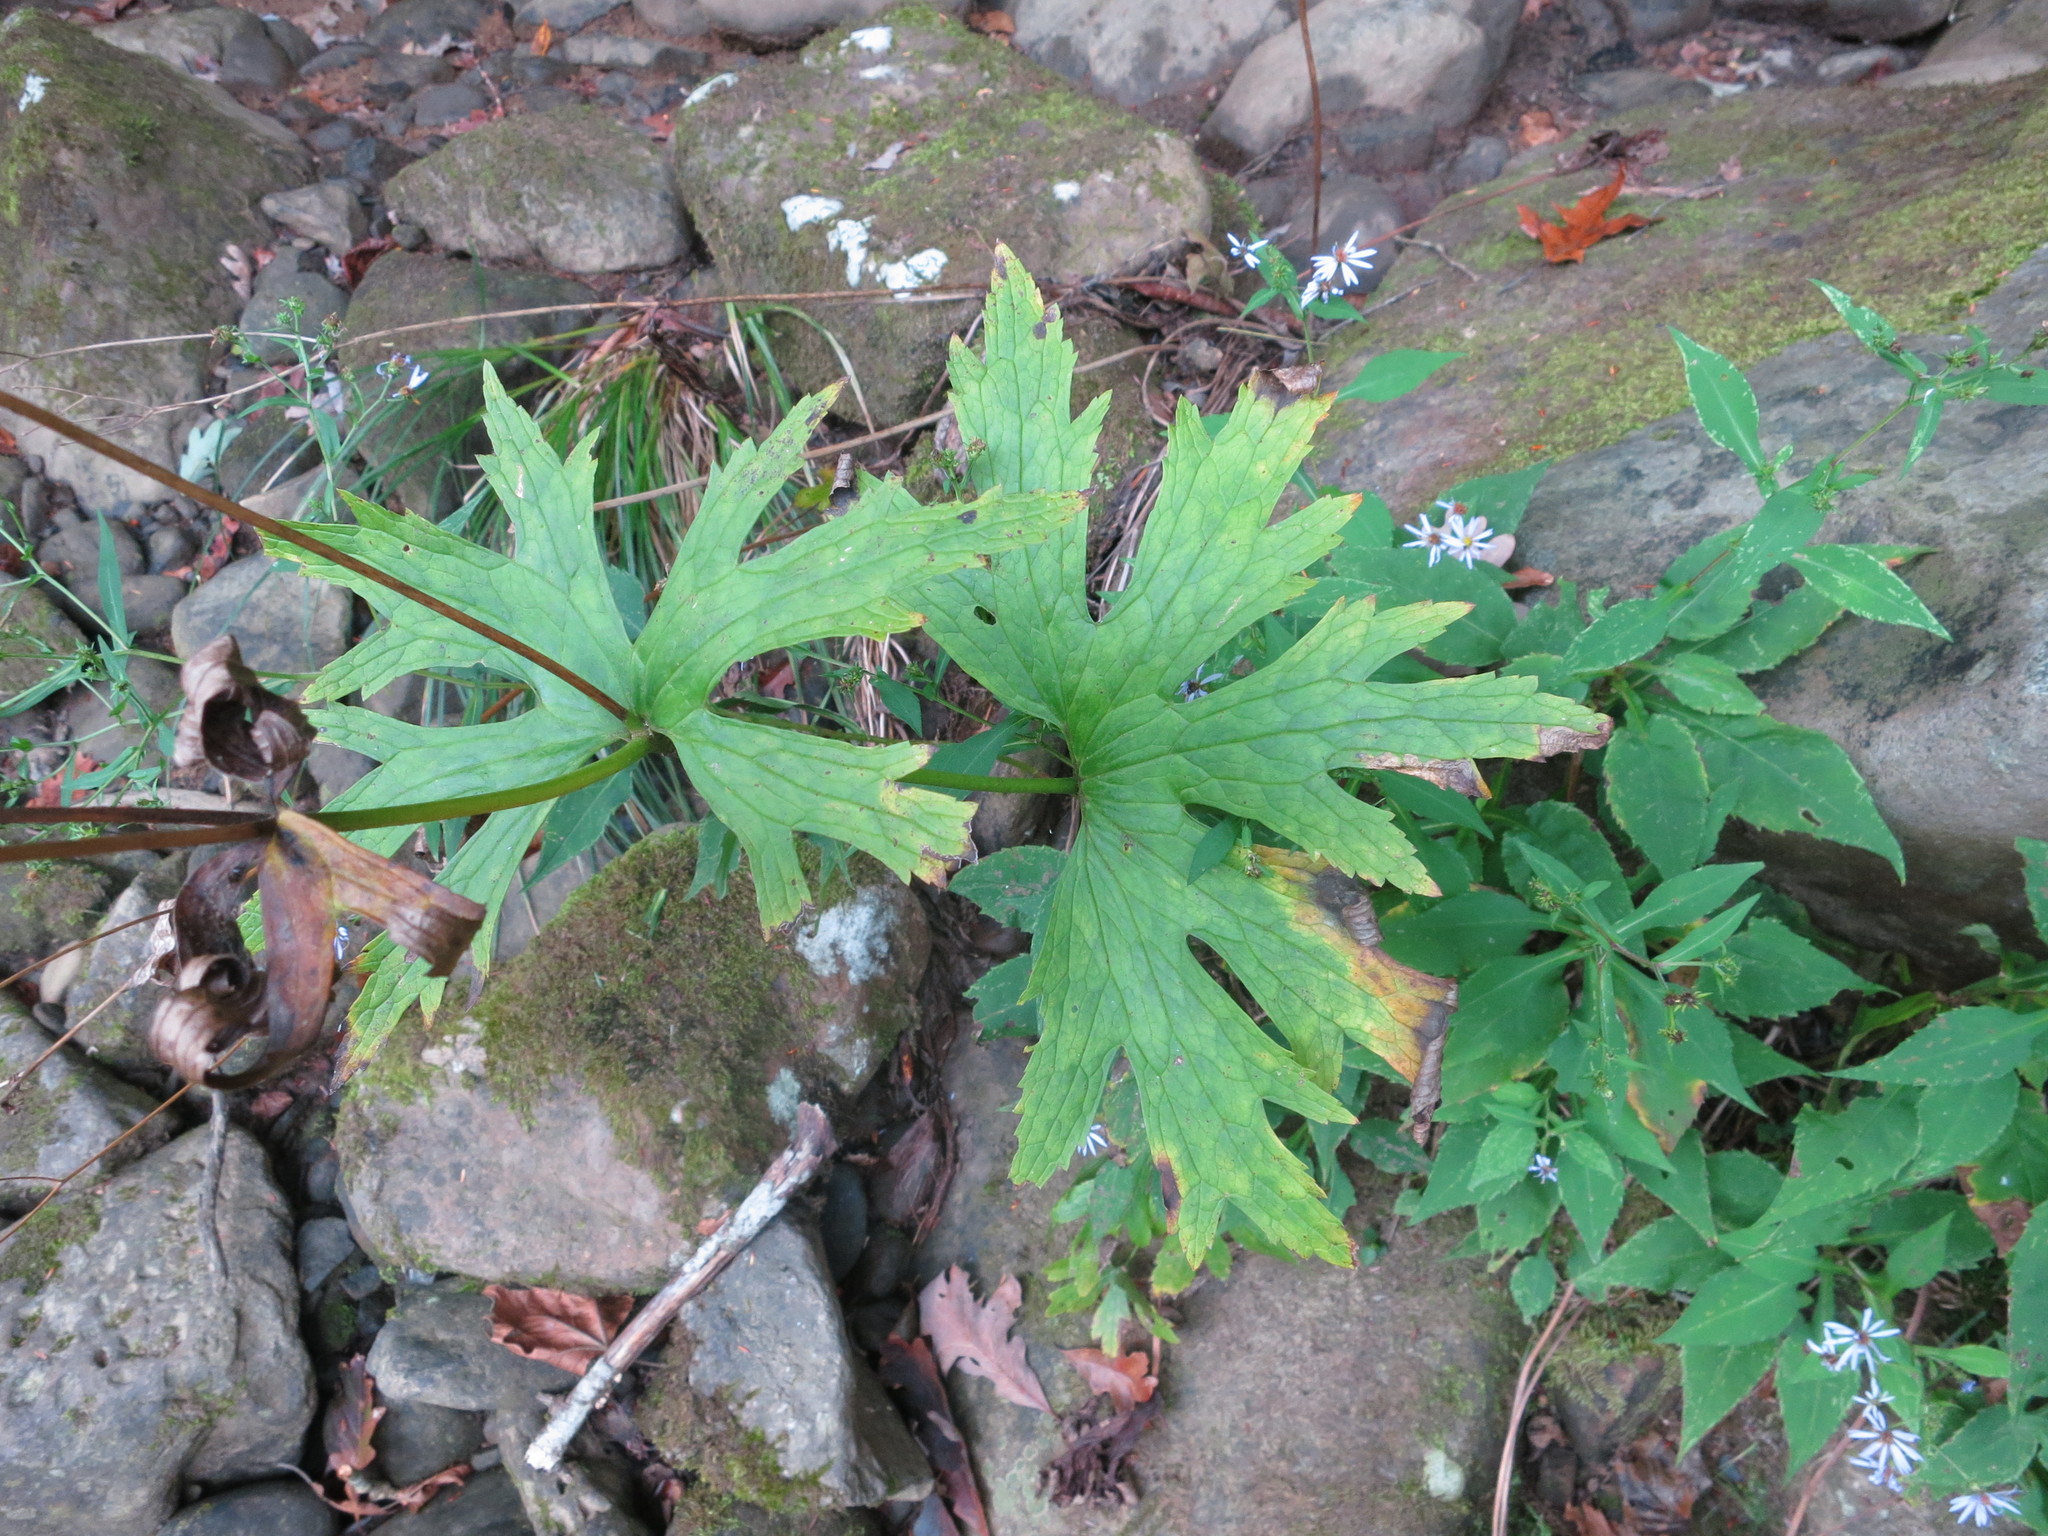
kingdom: Plantae
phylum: Tracheophyta
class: Magnoliopsida
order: Ranunculales
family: Ranunculaceae
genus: Trautvetteria
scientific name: Trautvetteria carolinensis
